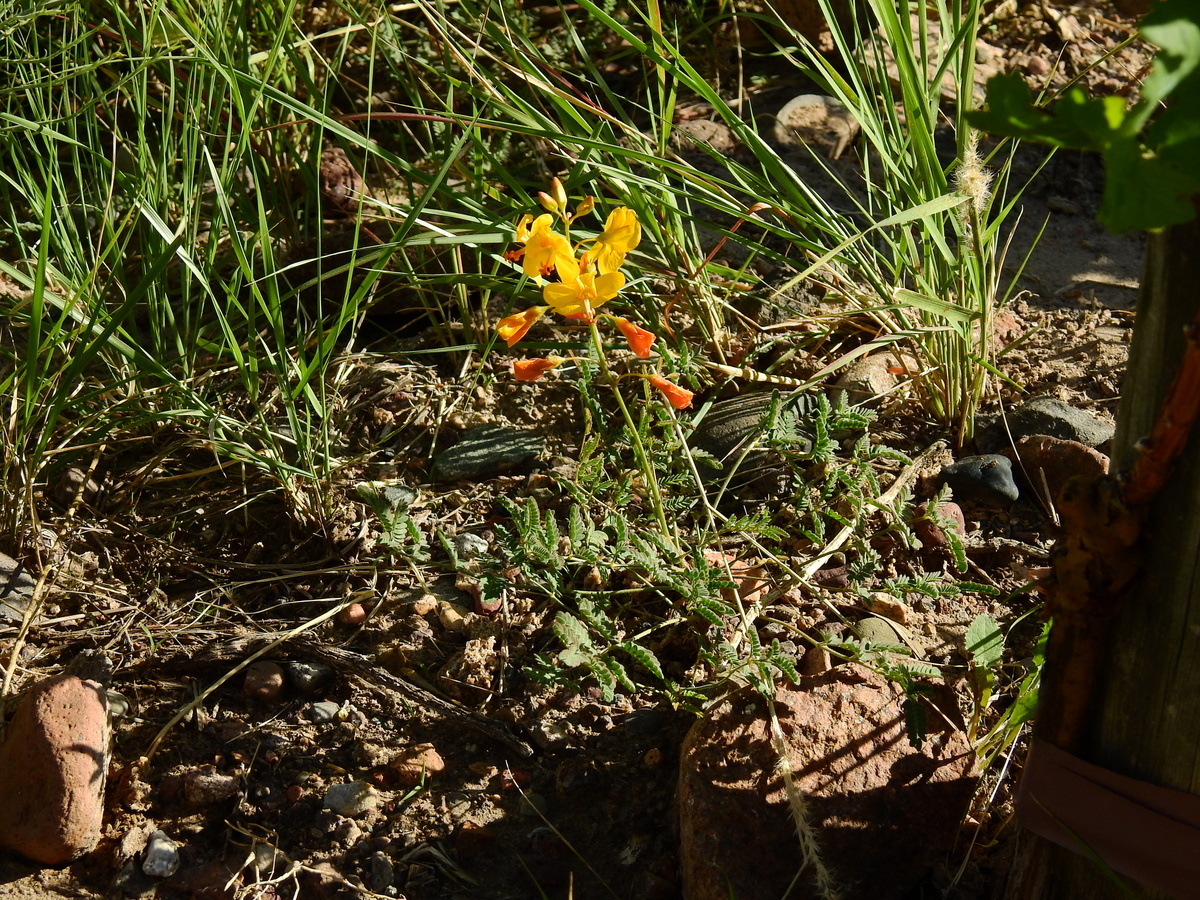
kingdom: Plantae
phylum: Tracheophyta
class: Magnoliopsida
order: Fabales
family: Fabaceae
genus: Hoffmannseggia
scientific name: Hoffmannseggia glauca
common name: Pignut
